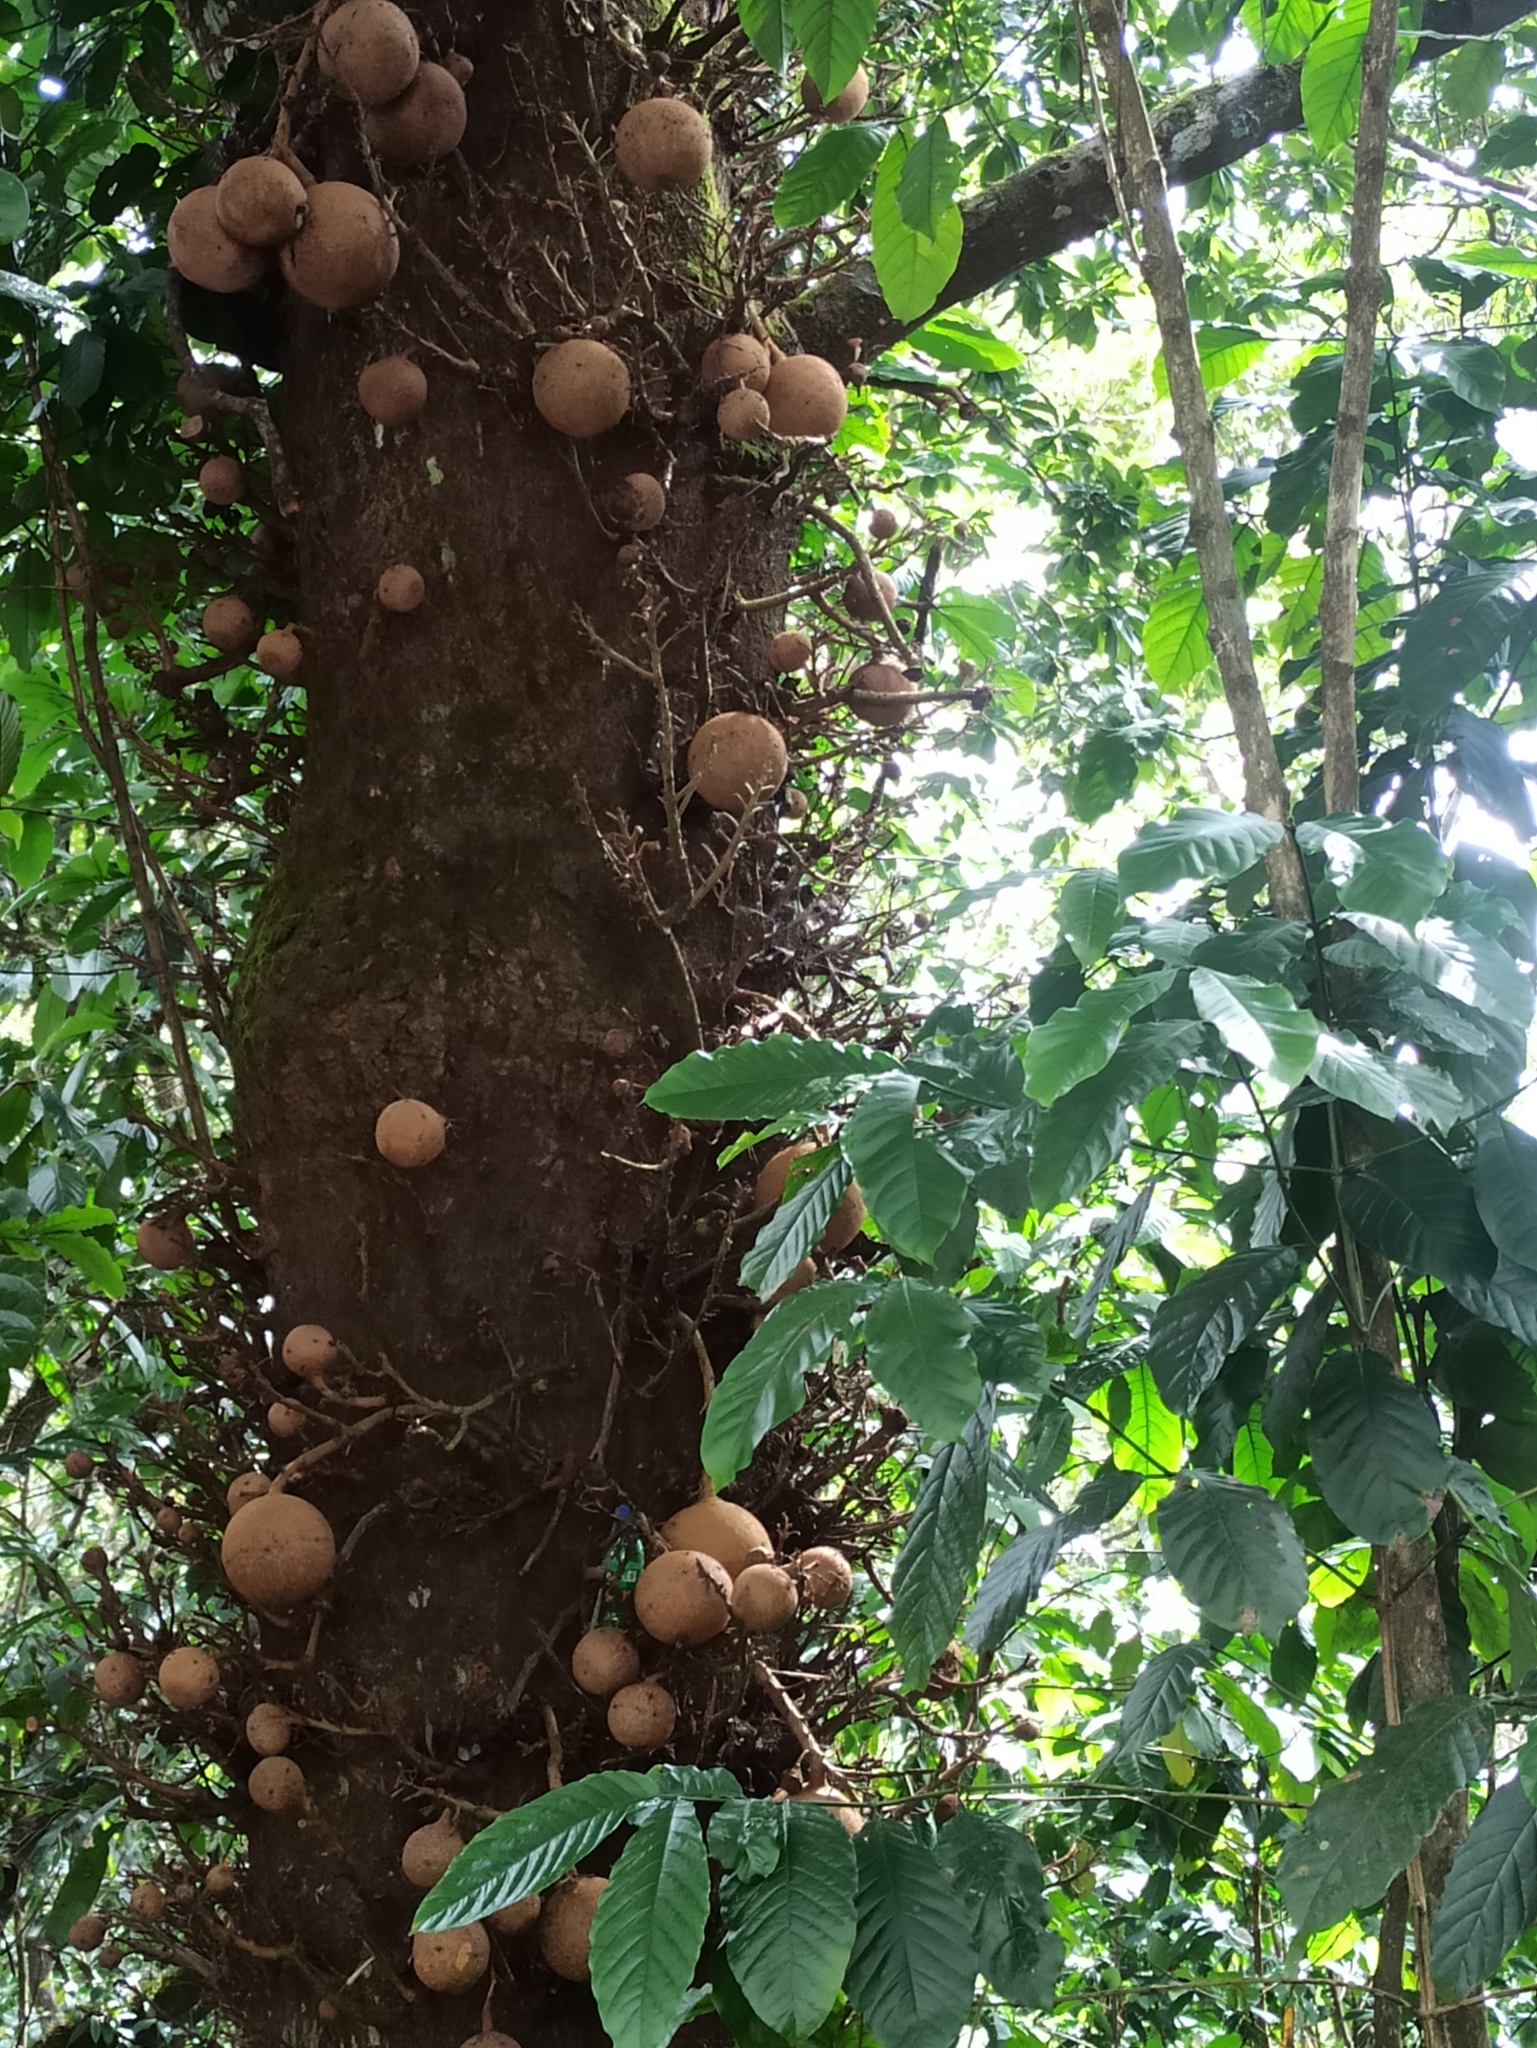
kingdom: Plantae
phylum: Tracheophyta
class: Magnoliopsida
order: Ericales
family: Lecythidaceae
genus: Couroupita
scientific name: Couroupita guianensis
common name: Cannonball tree
